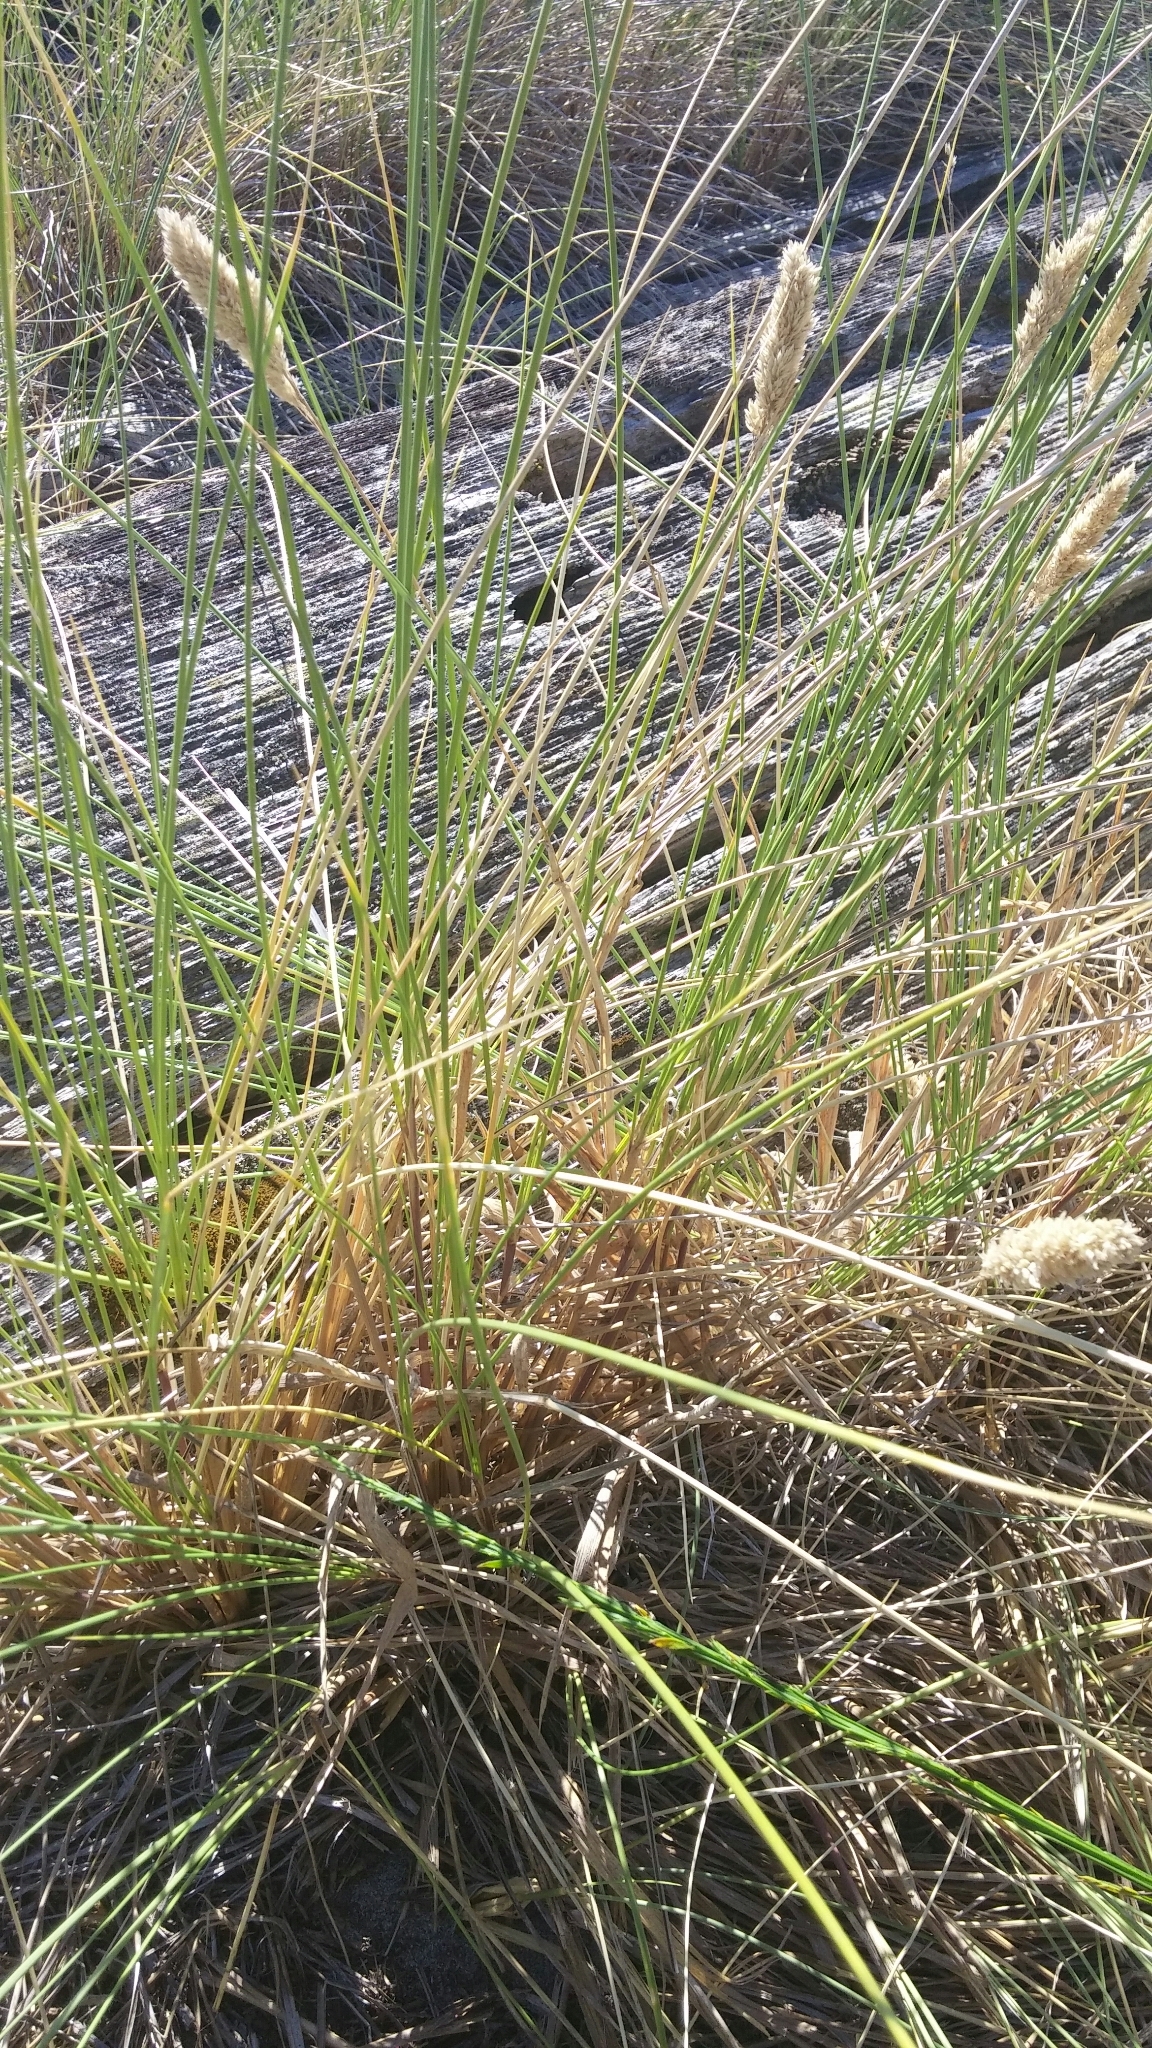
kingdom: Plantae
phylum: Tracheophyta
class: Liliopsida
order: Poales
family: Poaceae
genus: Holcus
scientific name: Holcus lanatus
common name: Yorkshire-fog
